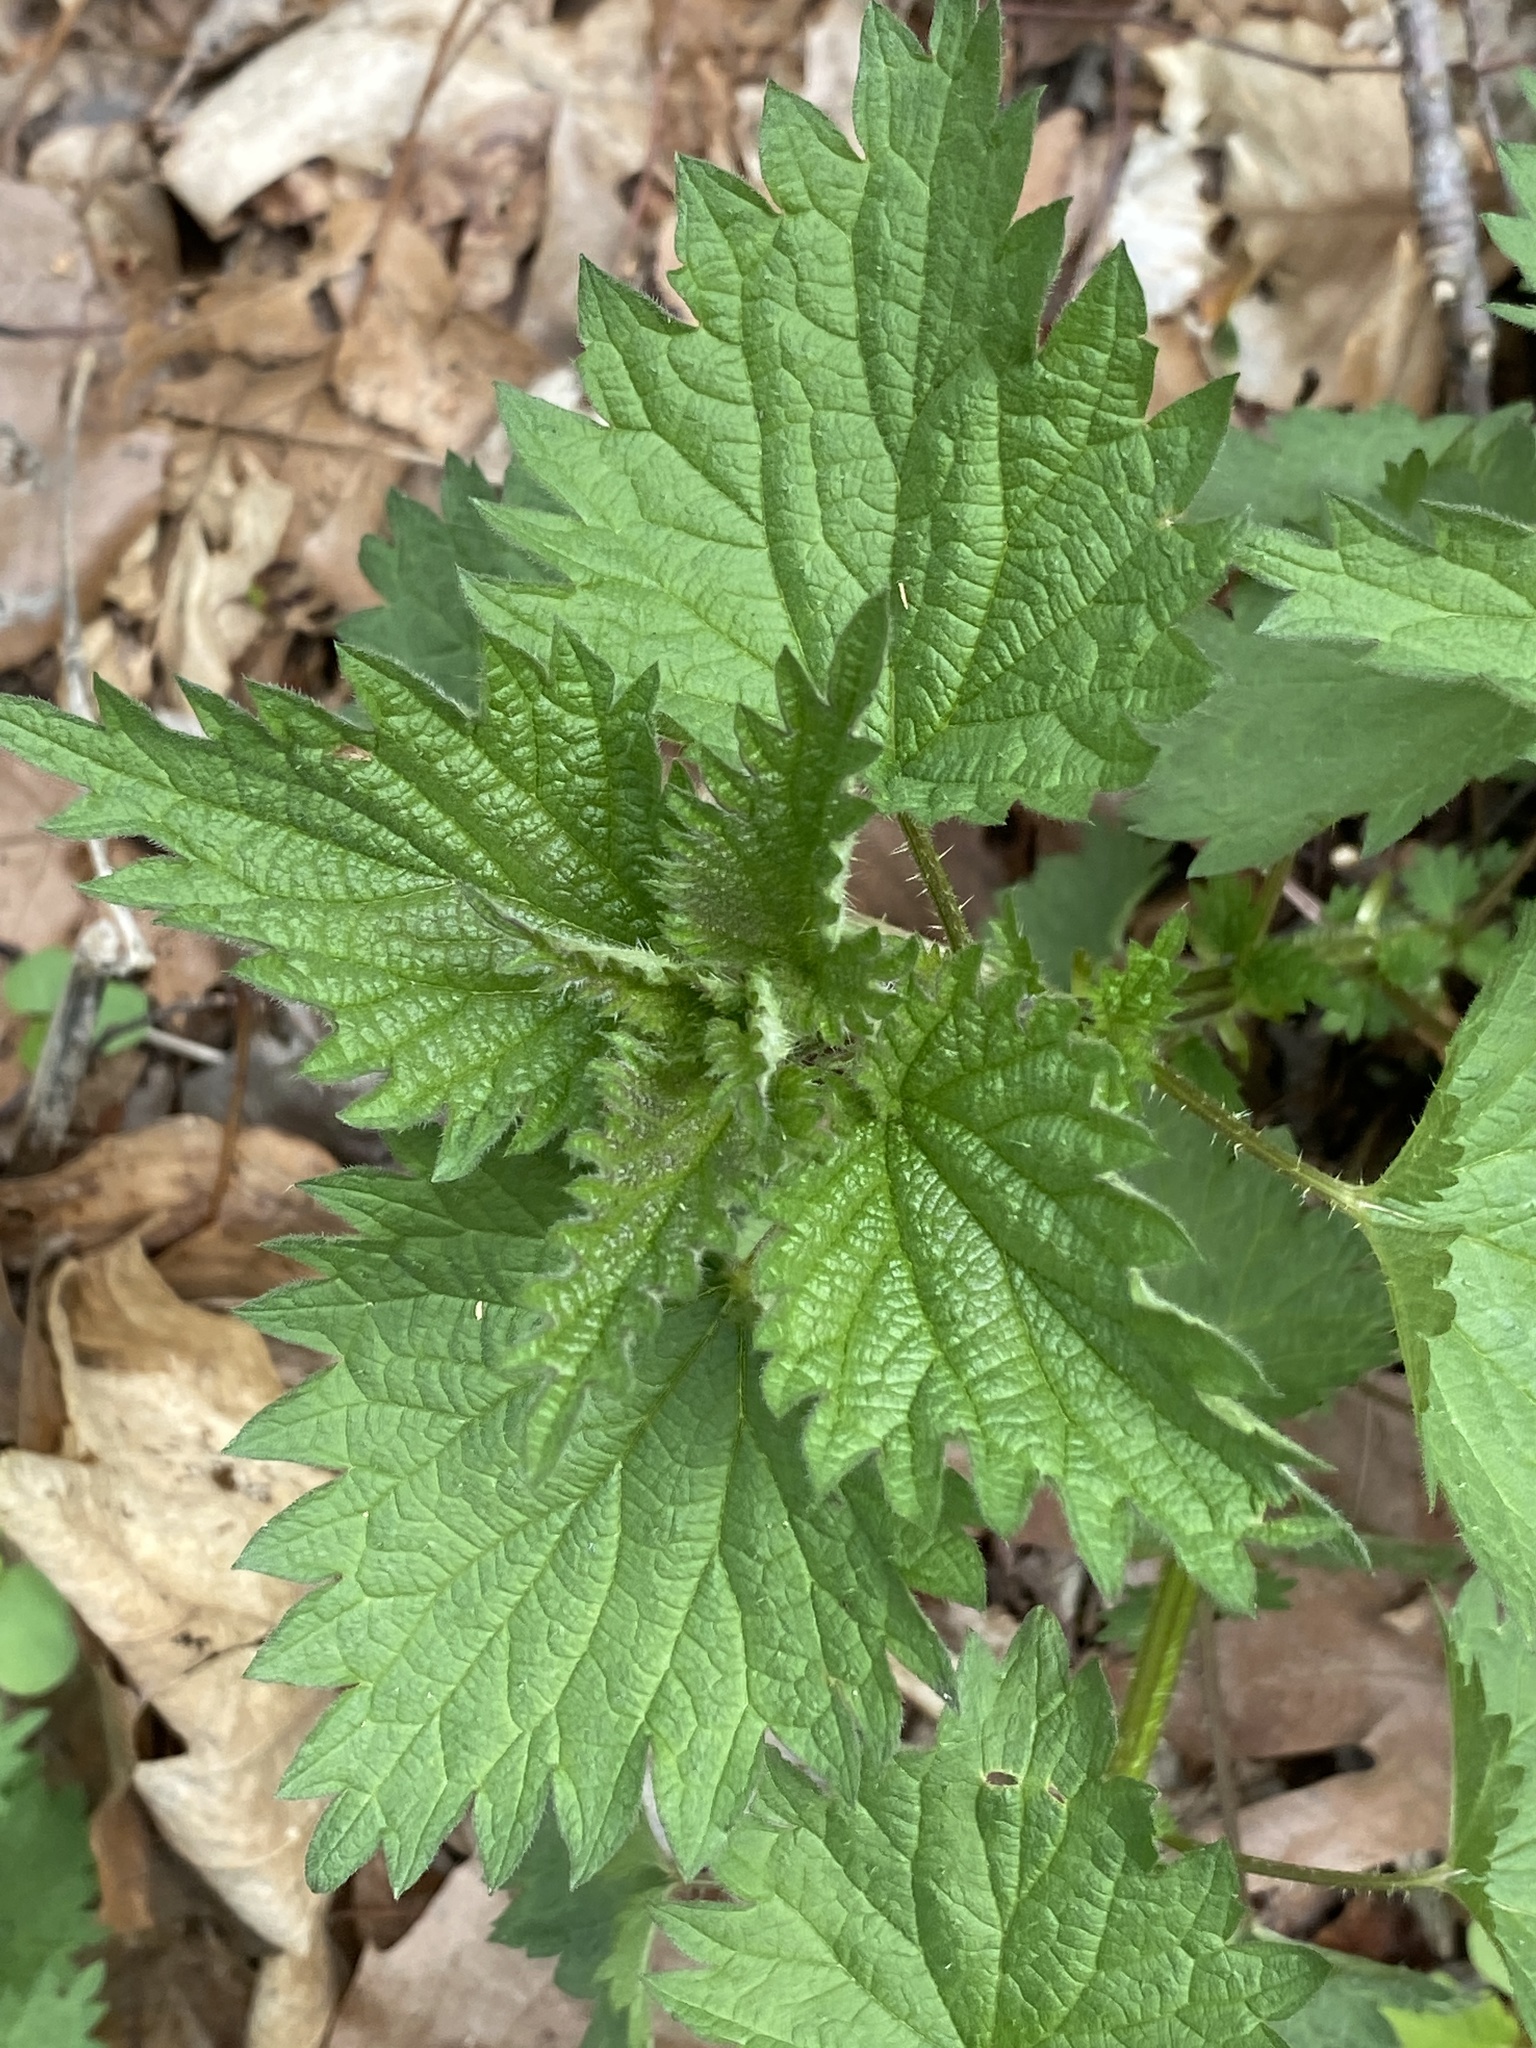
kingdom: Plantae
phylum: Tracheophyta
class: Magnoliopsida
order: Rosales
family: Urticaceae
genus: Urtica
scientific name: Urtica dioica
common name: Common nettle
